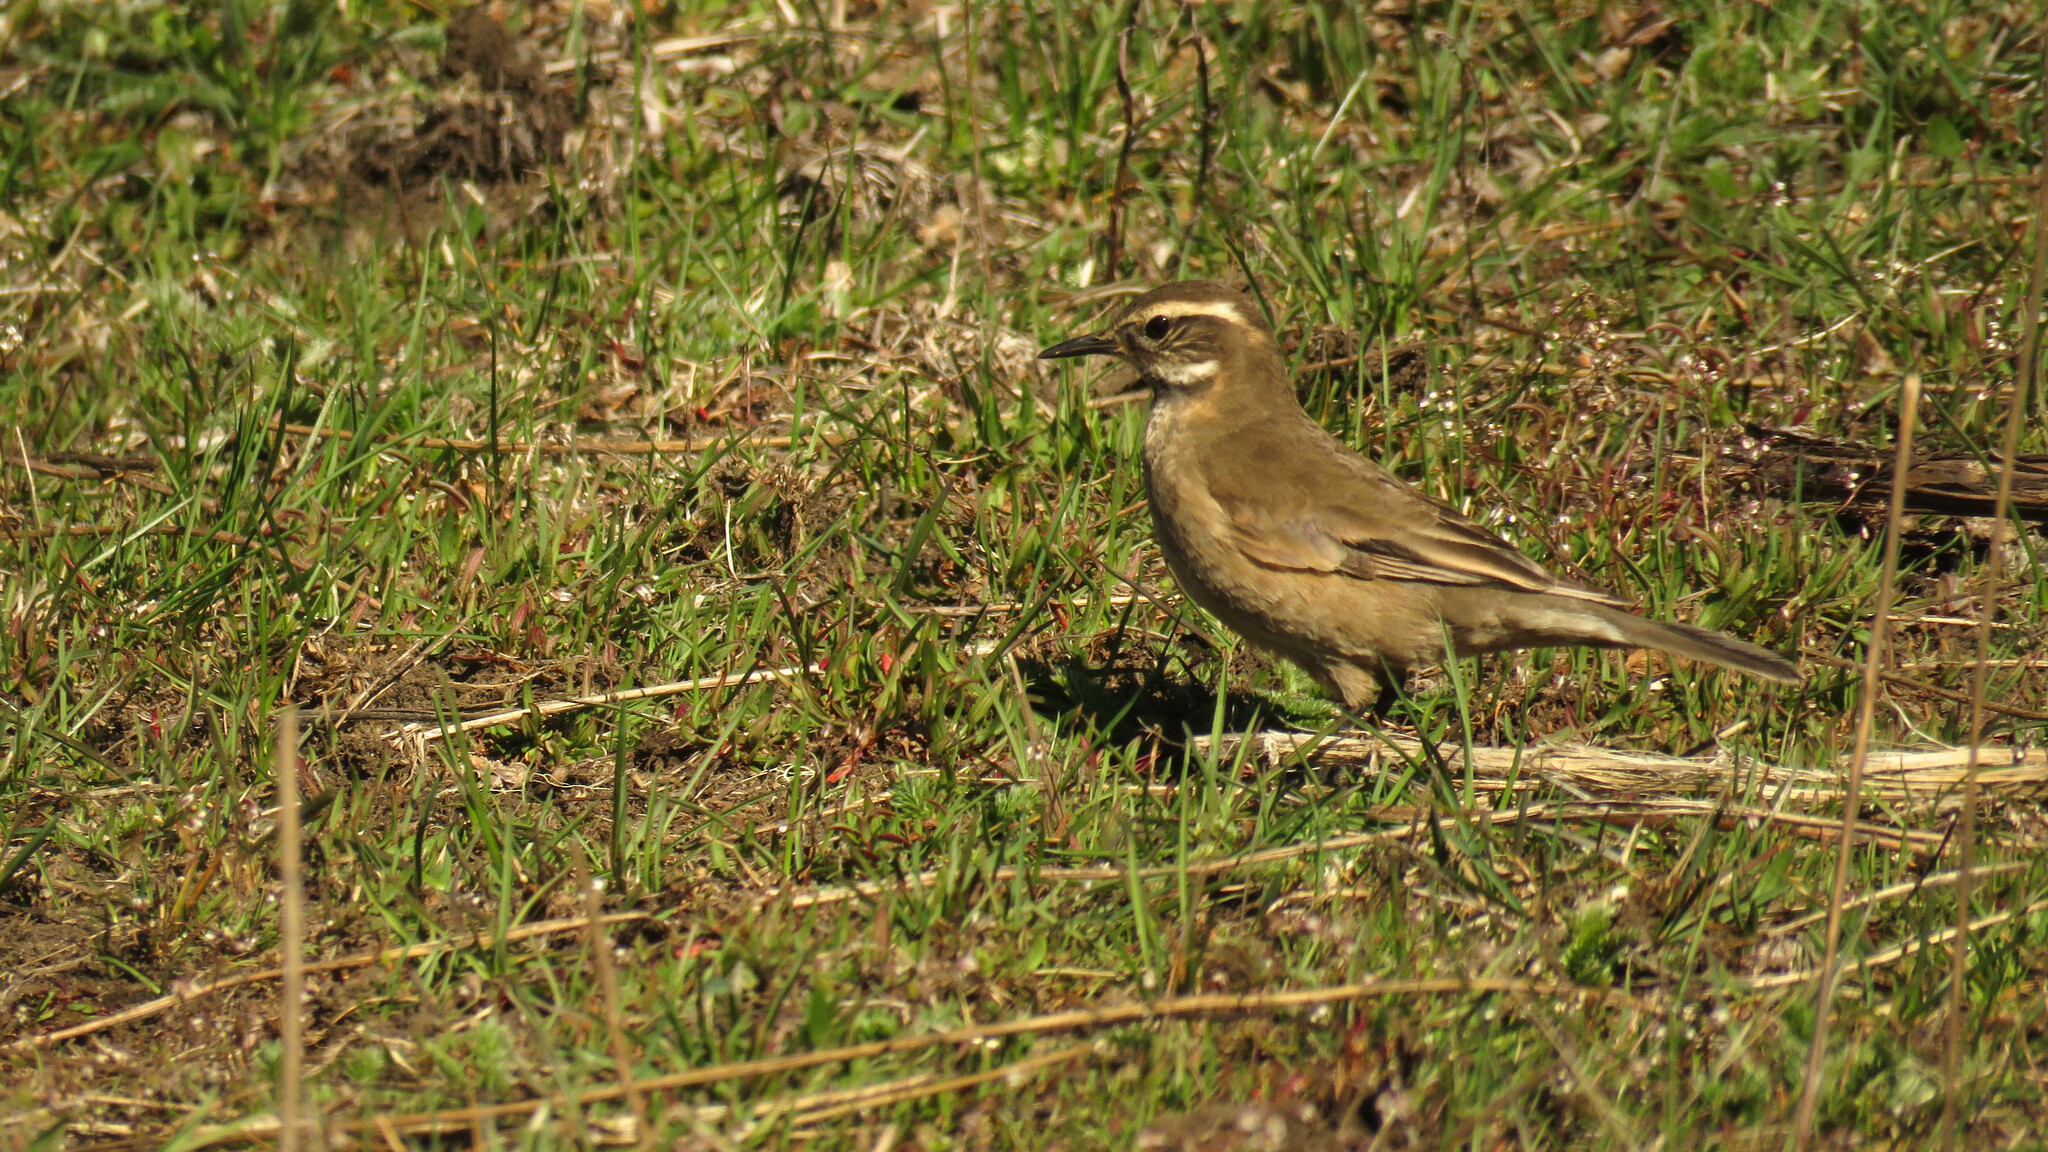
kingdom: Animalia
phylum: Chordata
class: Aves
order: Passeriformes
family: Furnariidae
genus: Cinclodes
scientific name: Cinclodes fuscus
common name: Buff-winged cinclodes
